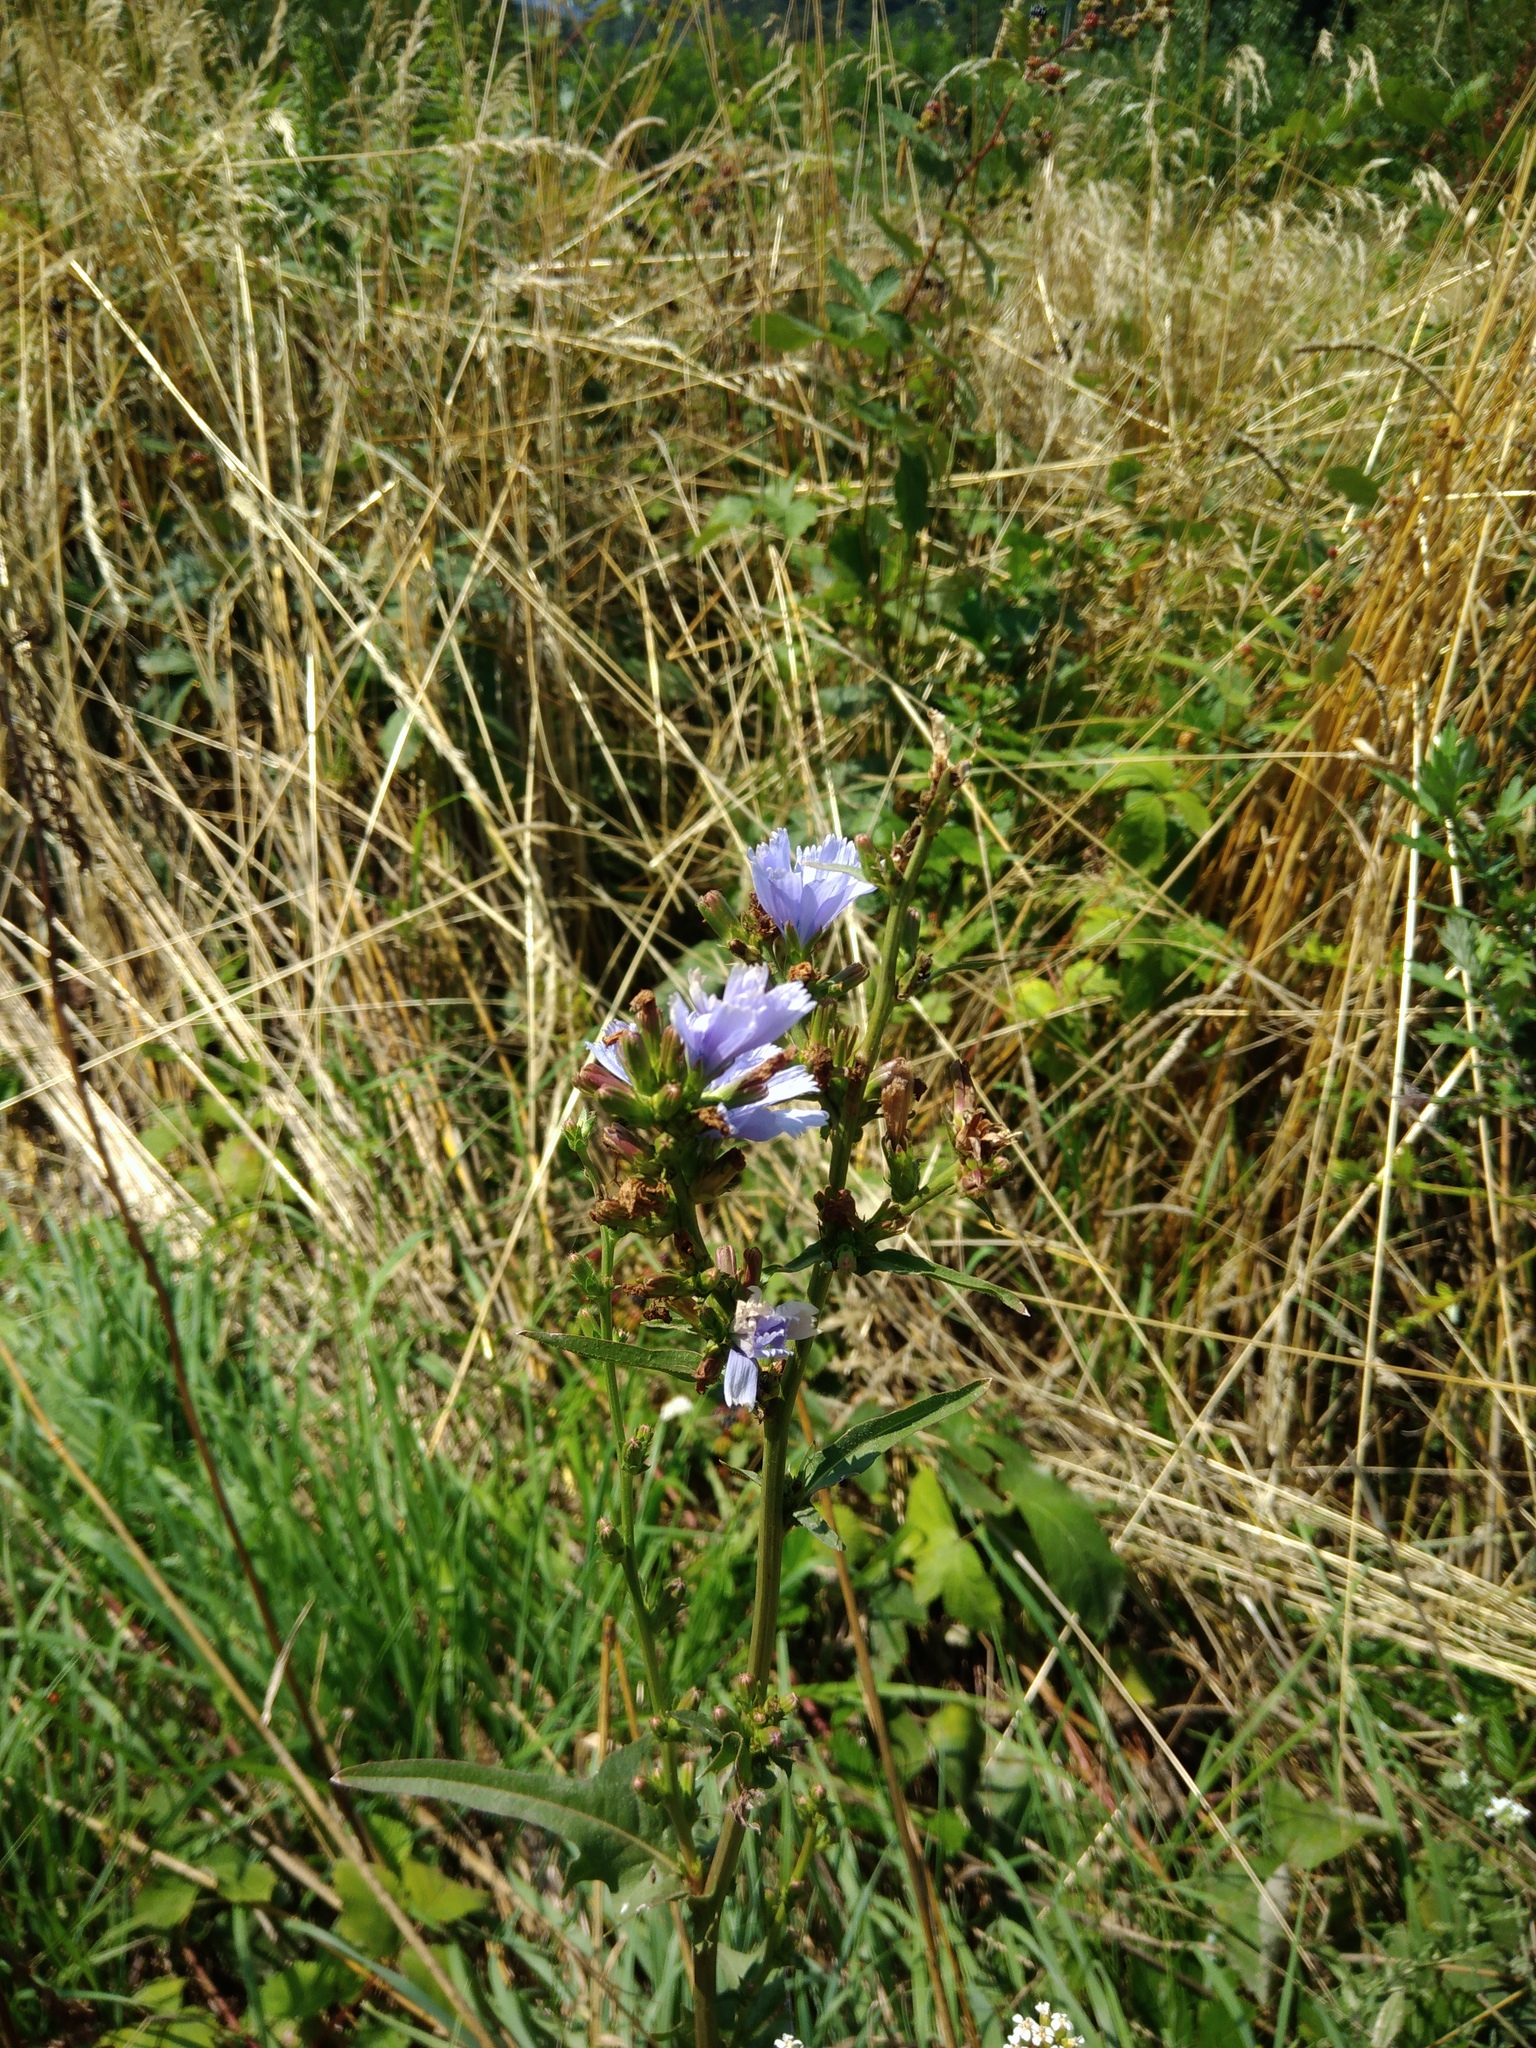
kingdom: Plantae
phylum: Tracheophyta
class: Magnoliopsida
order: Asterales
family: Asteraceae
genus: Cichorium
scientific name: Cichorium intybus
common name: Chicory
